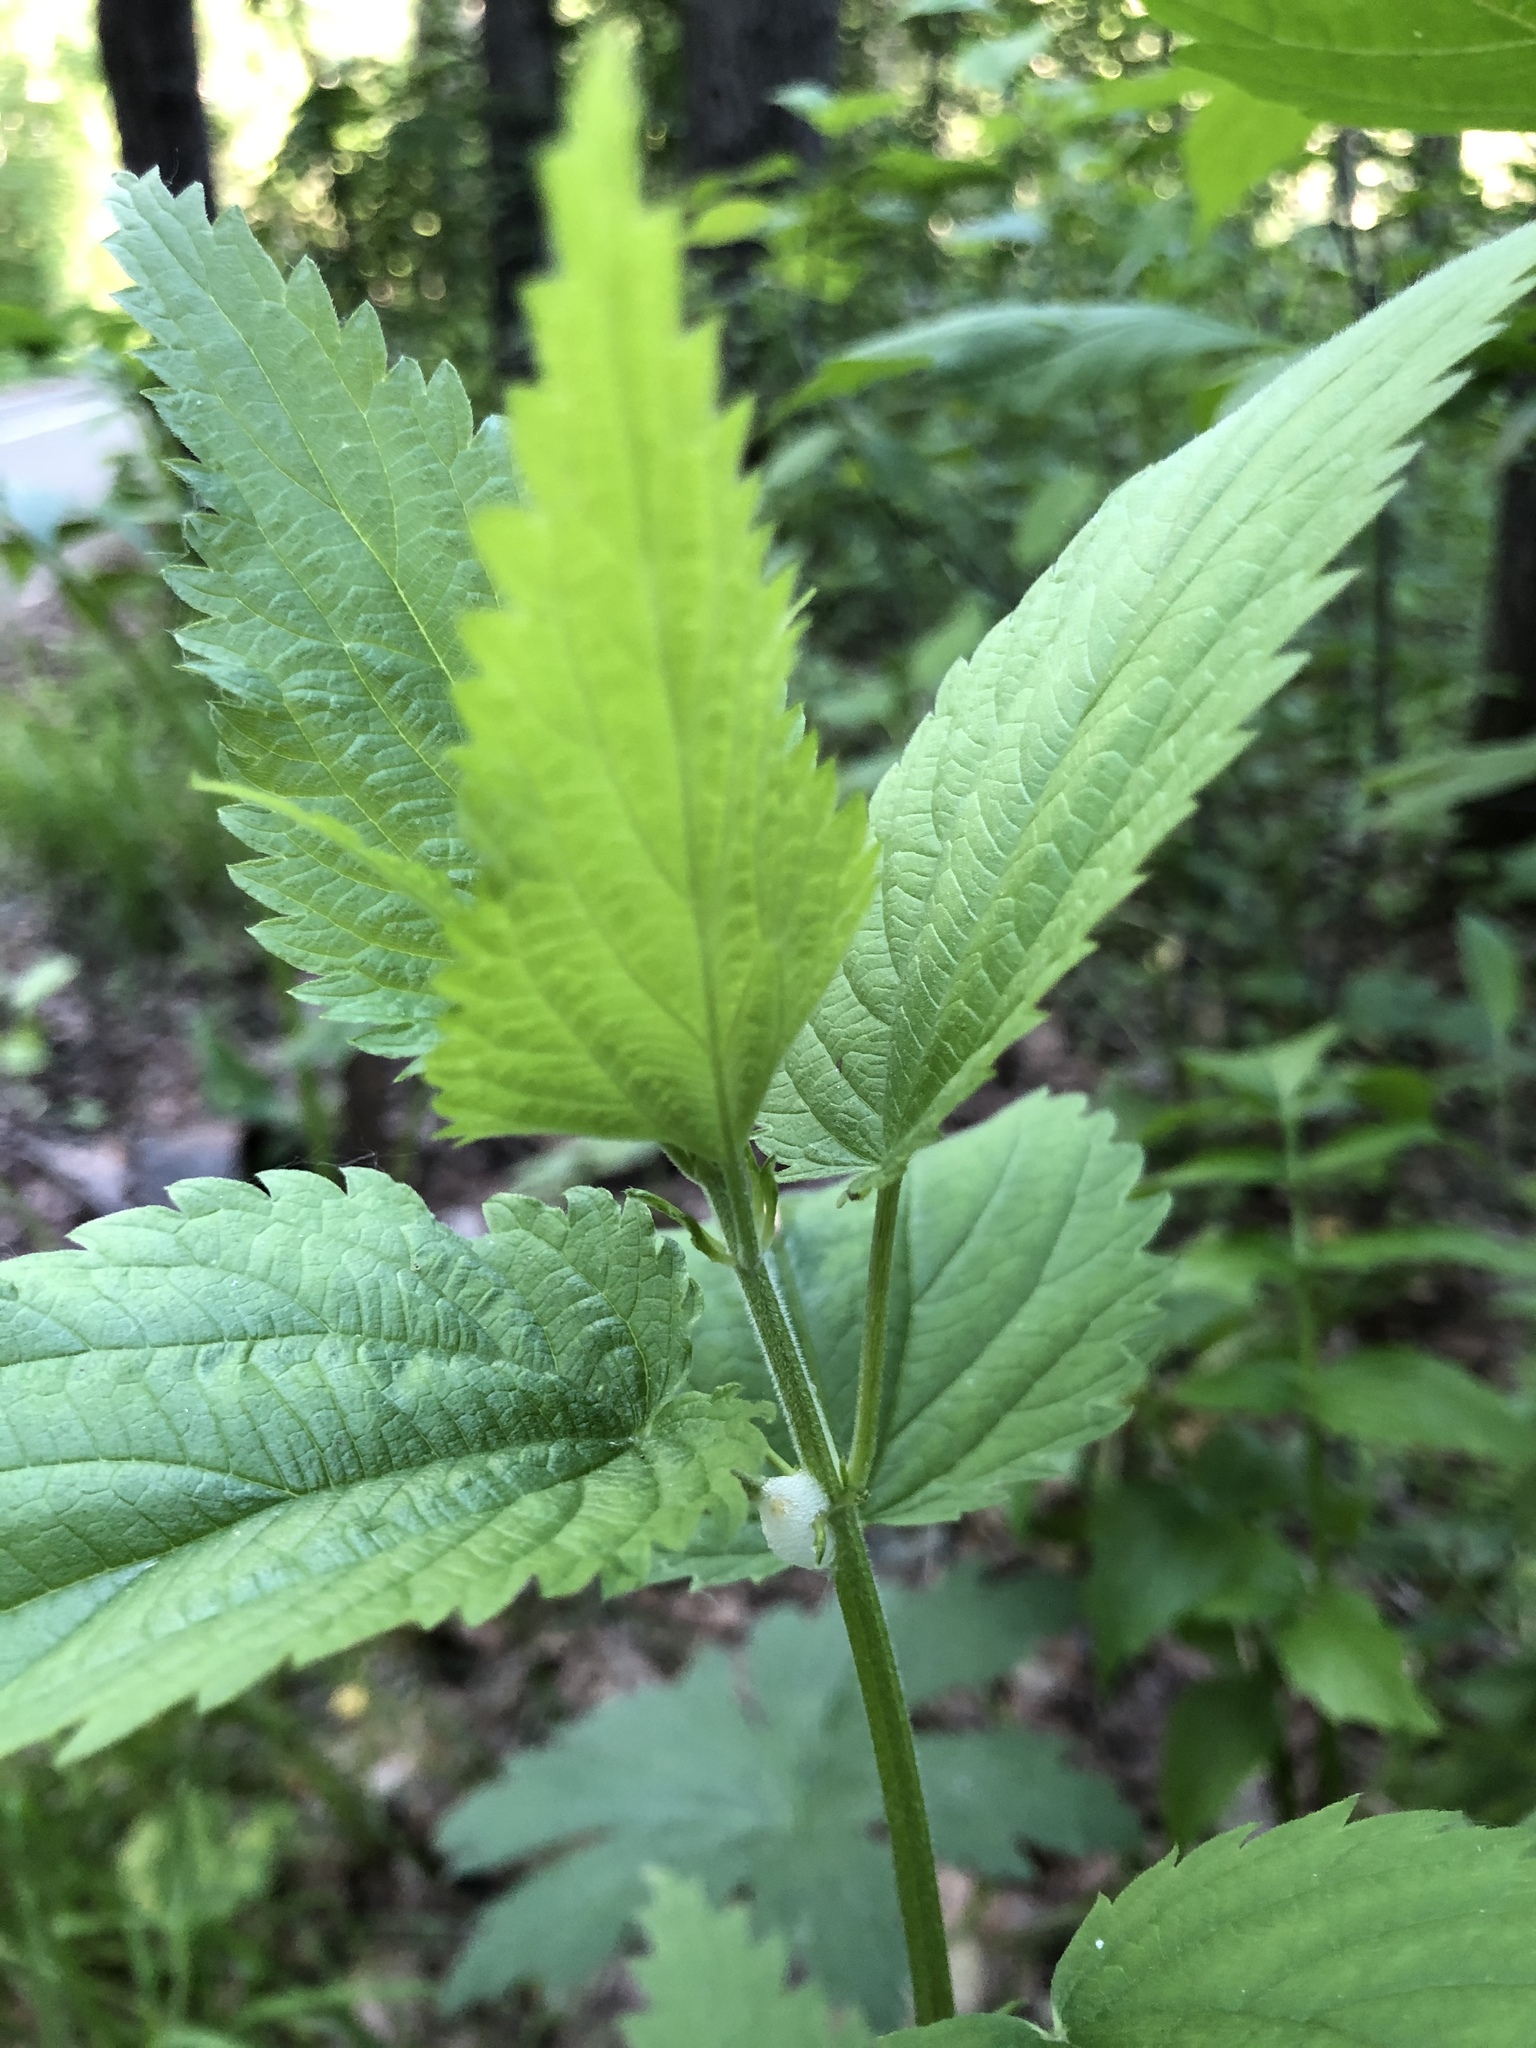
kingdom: Plantae
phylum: Tracheophyta
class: Magnoliopsida
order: Rosales
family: Urticaceae
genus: Urtica
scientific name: Urtica galeopsifolia
